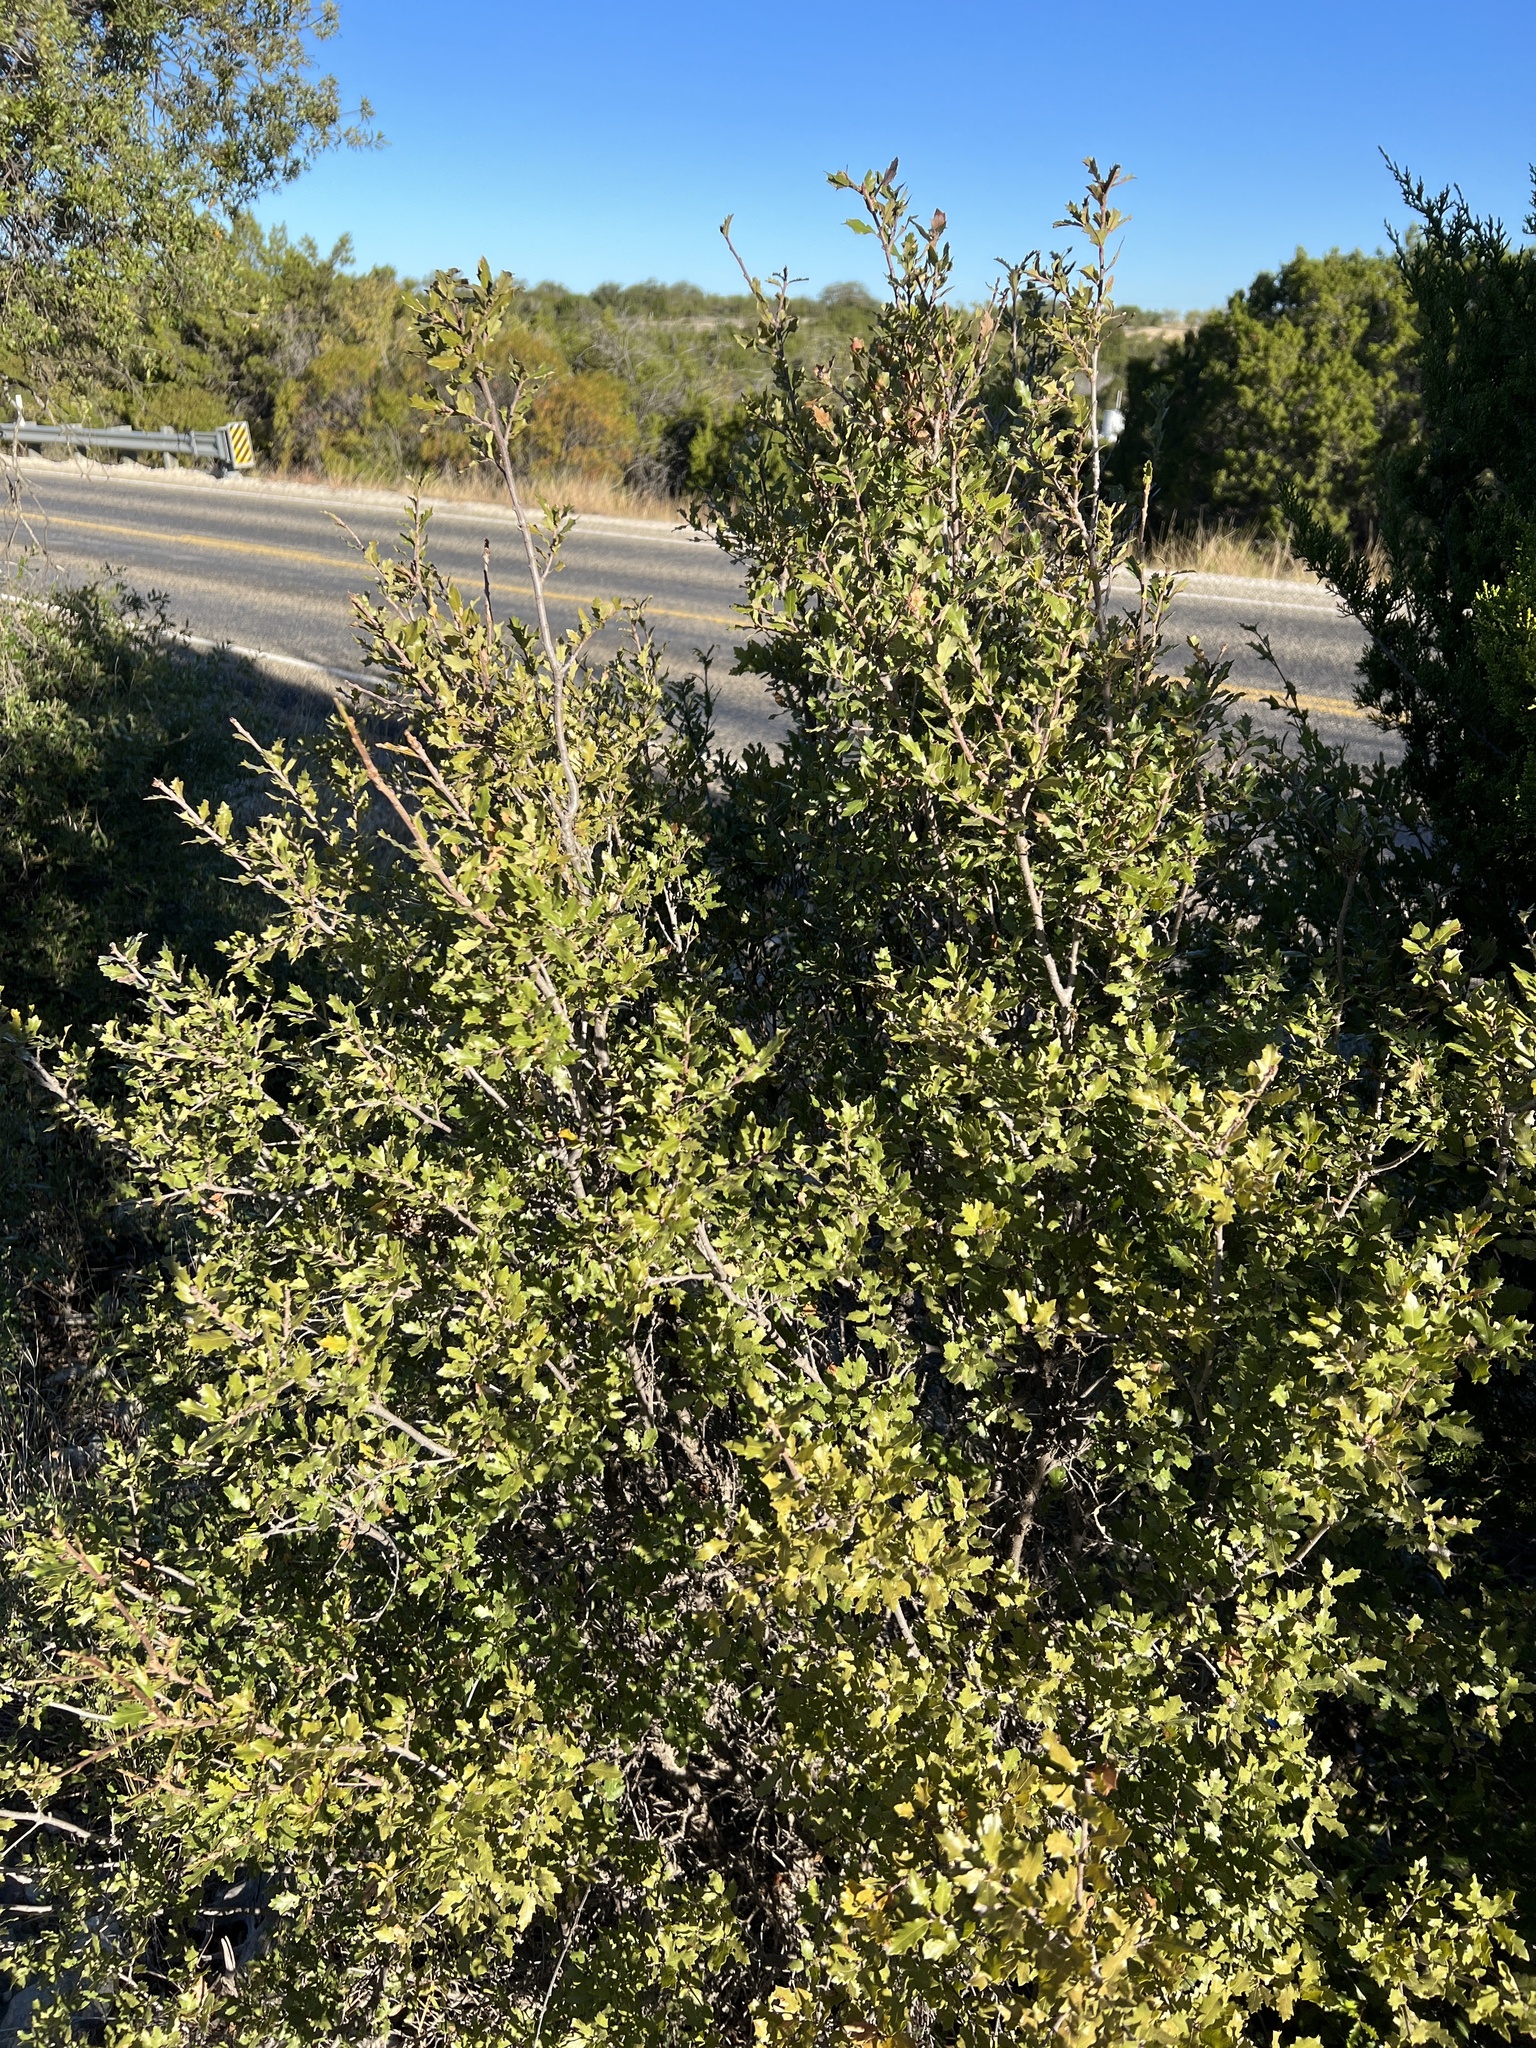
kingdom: Plantae
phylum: Tracheophyta
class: Magnoliopsida
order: Fagales
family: Fagaceae
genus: Quercus
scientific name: Quercus vaseyana
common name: Sandpaper oak
